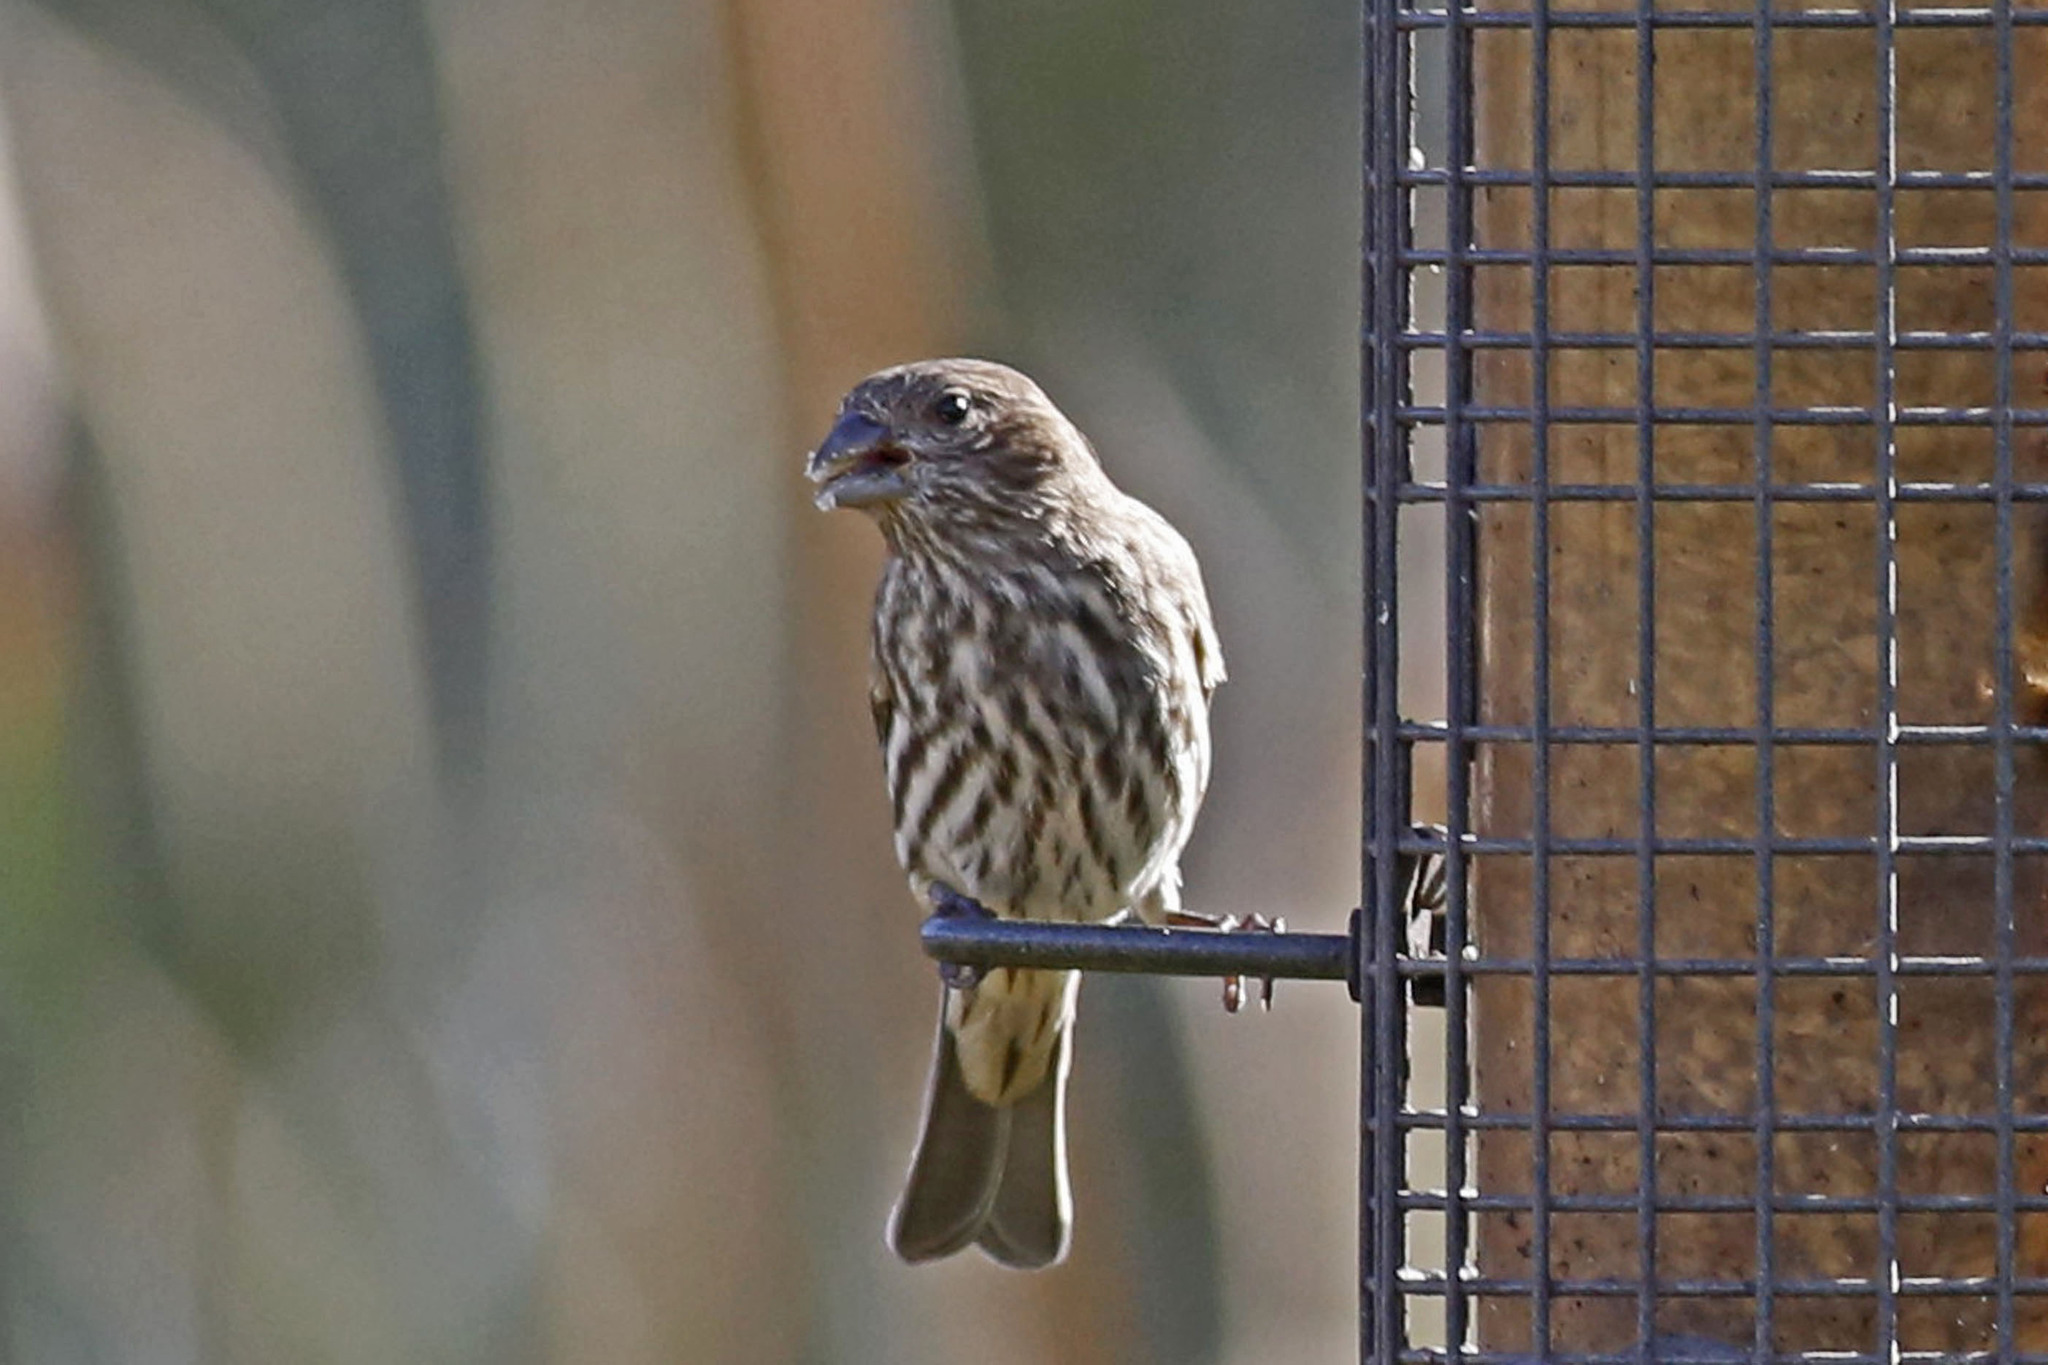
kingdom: Animalia
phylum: Chordata
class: Aves
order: Passeriformes
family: Fringillidae
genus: Haemorhous
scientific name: Haemorhous mexicanus
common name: House finch
